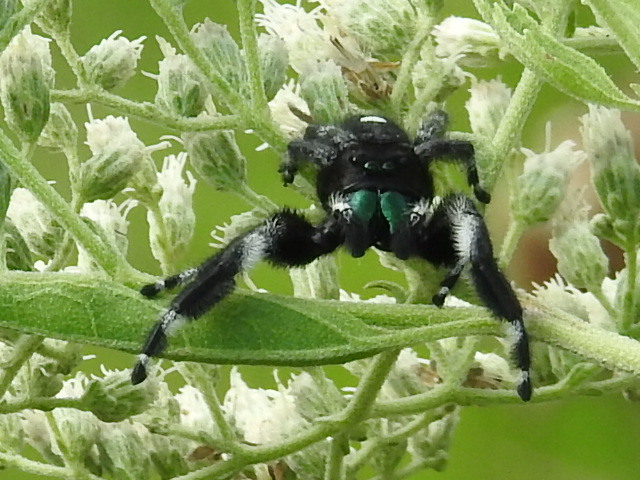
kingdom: Animalia
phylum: Arthropoda
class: Arachnida
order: Araneae
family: Salticidae
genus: Phidippus
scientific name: Phidippus audax
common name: Bold jumper
